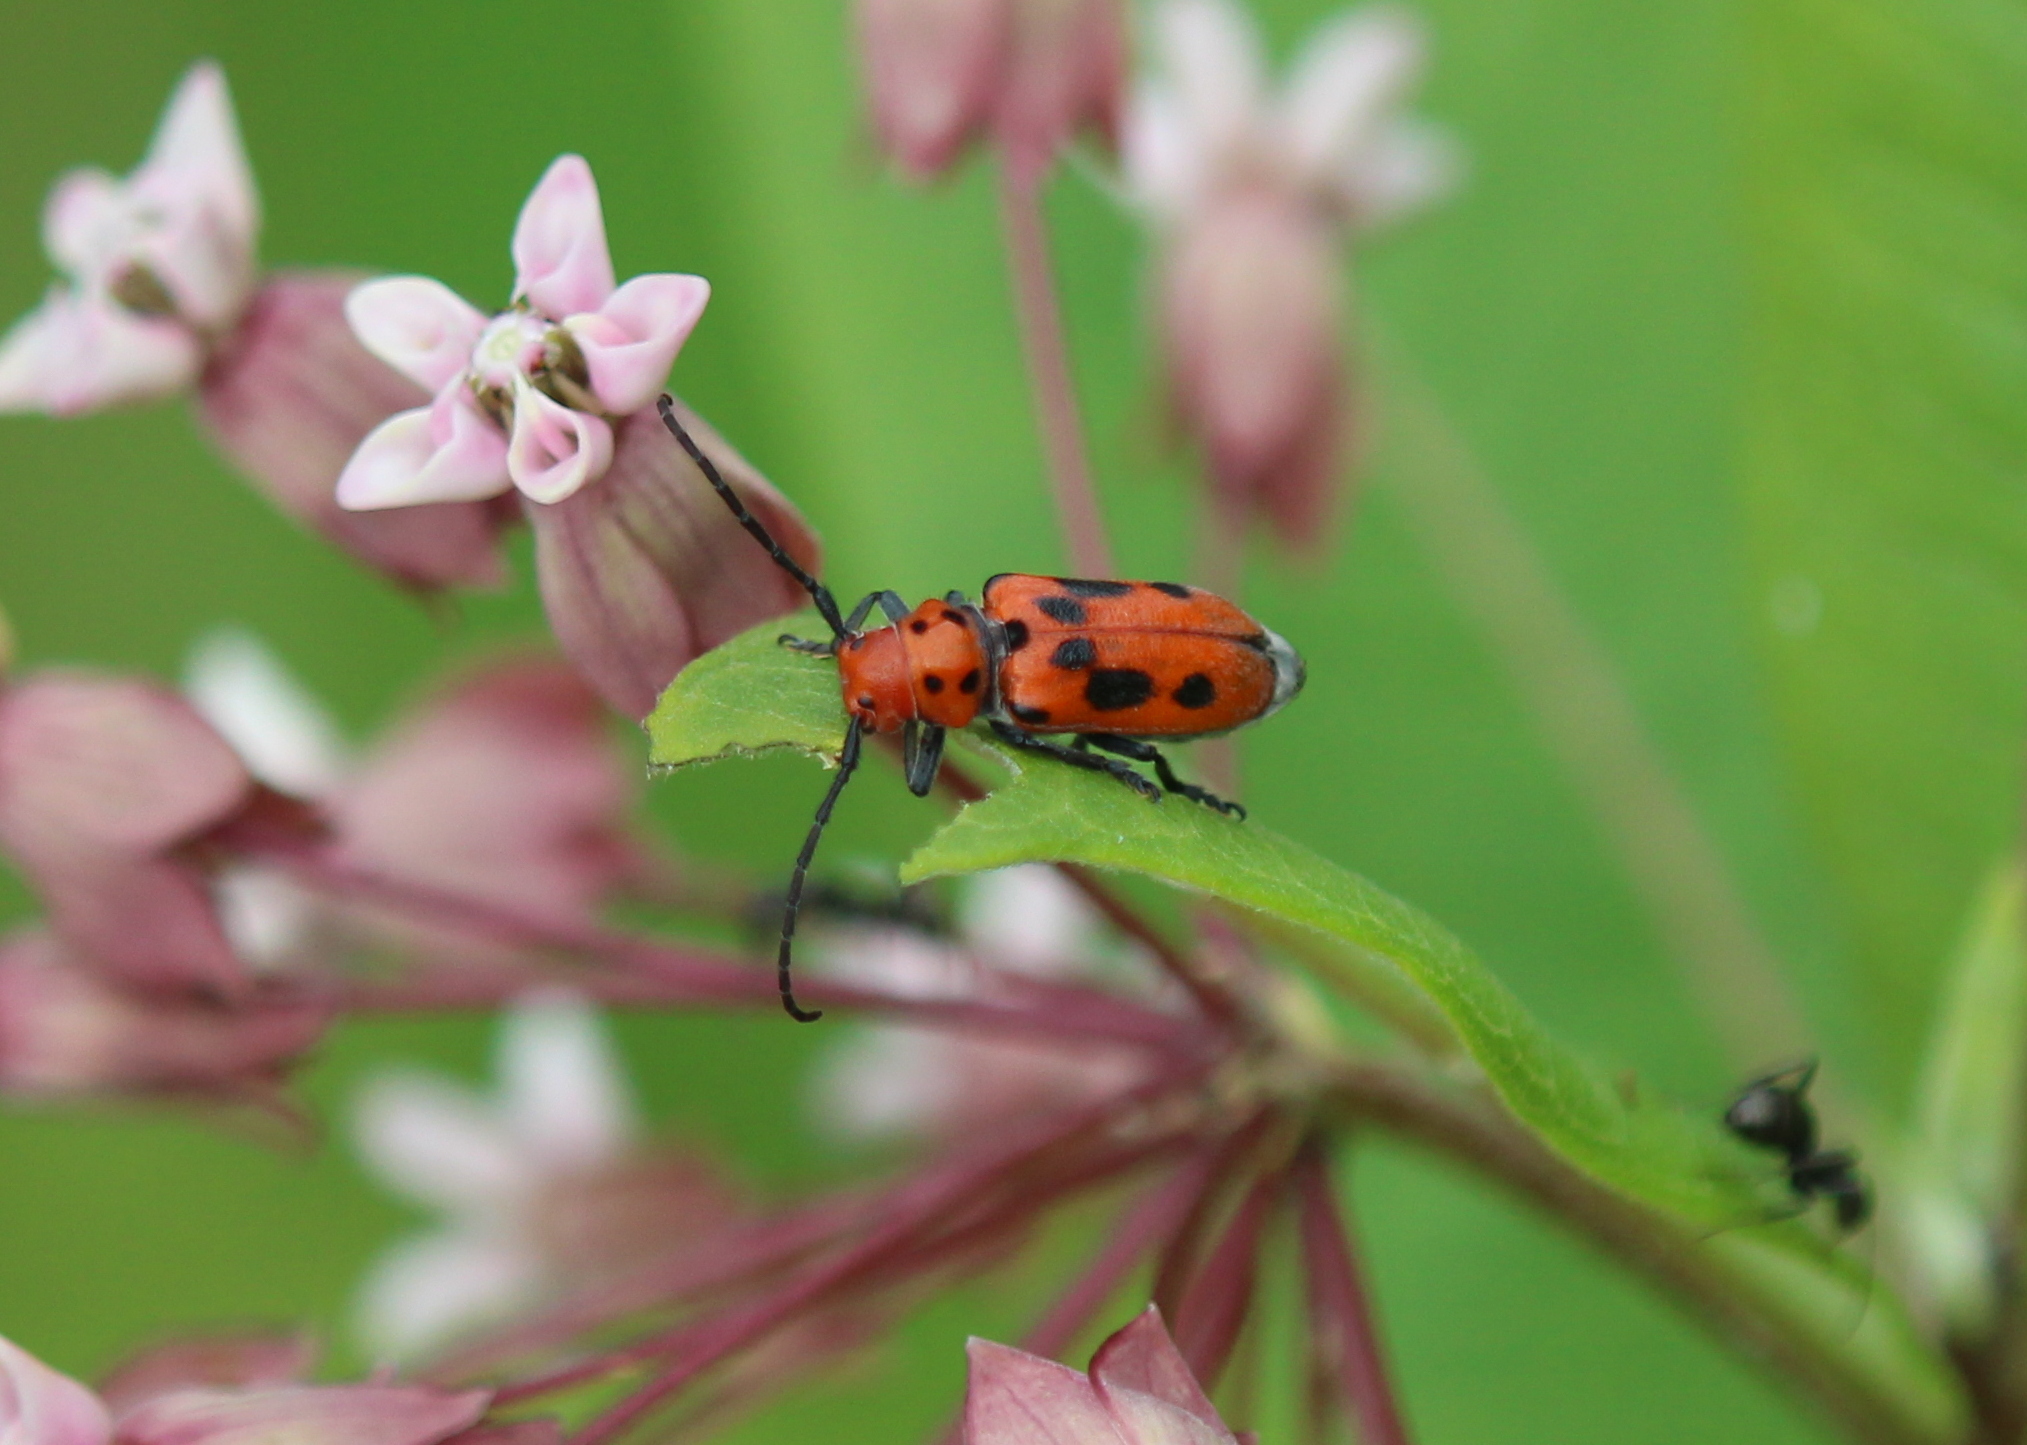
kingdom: Animalia
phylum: Arthropoda
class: Insecta
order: Coleoptera
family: Cerambycidae
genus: Tetraopes
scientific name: Tetraopes tetrophthalmus
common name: Red milkweed beetle
